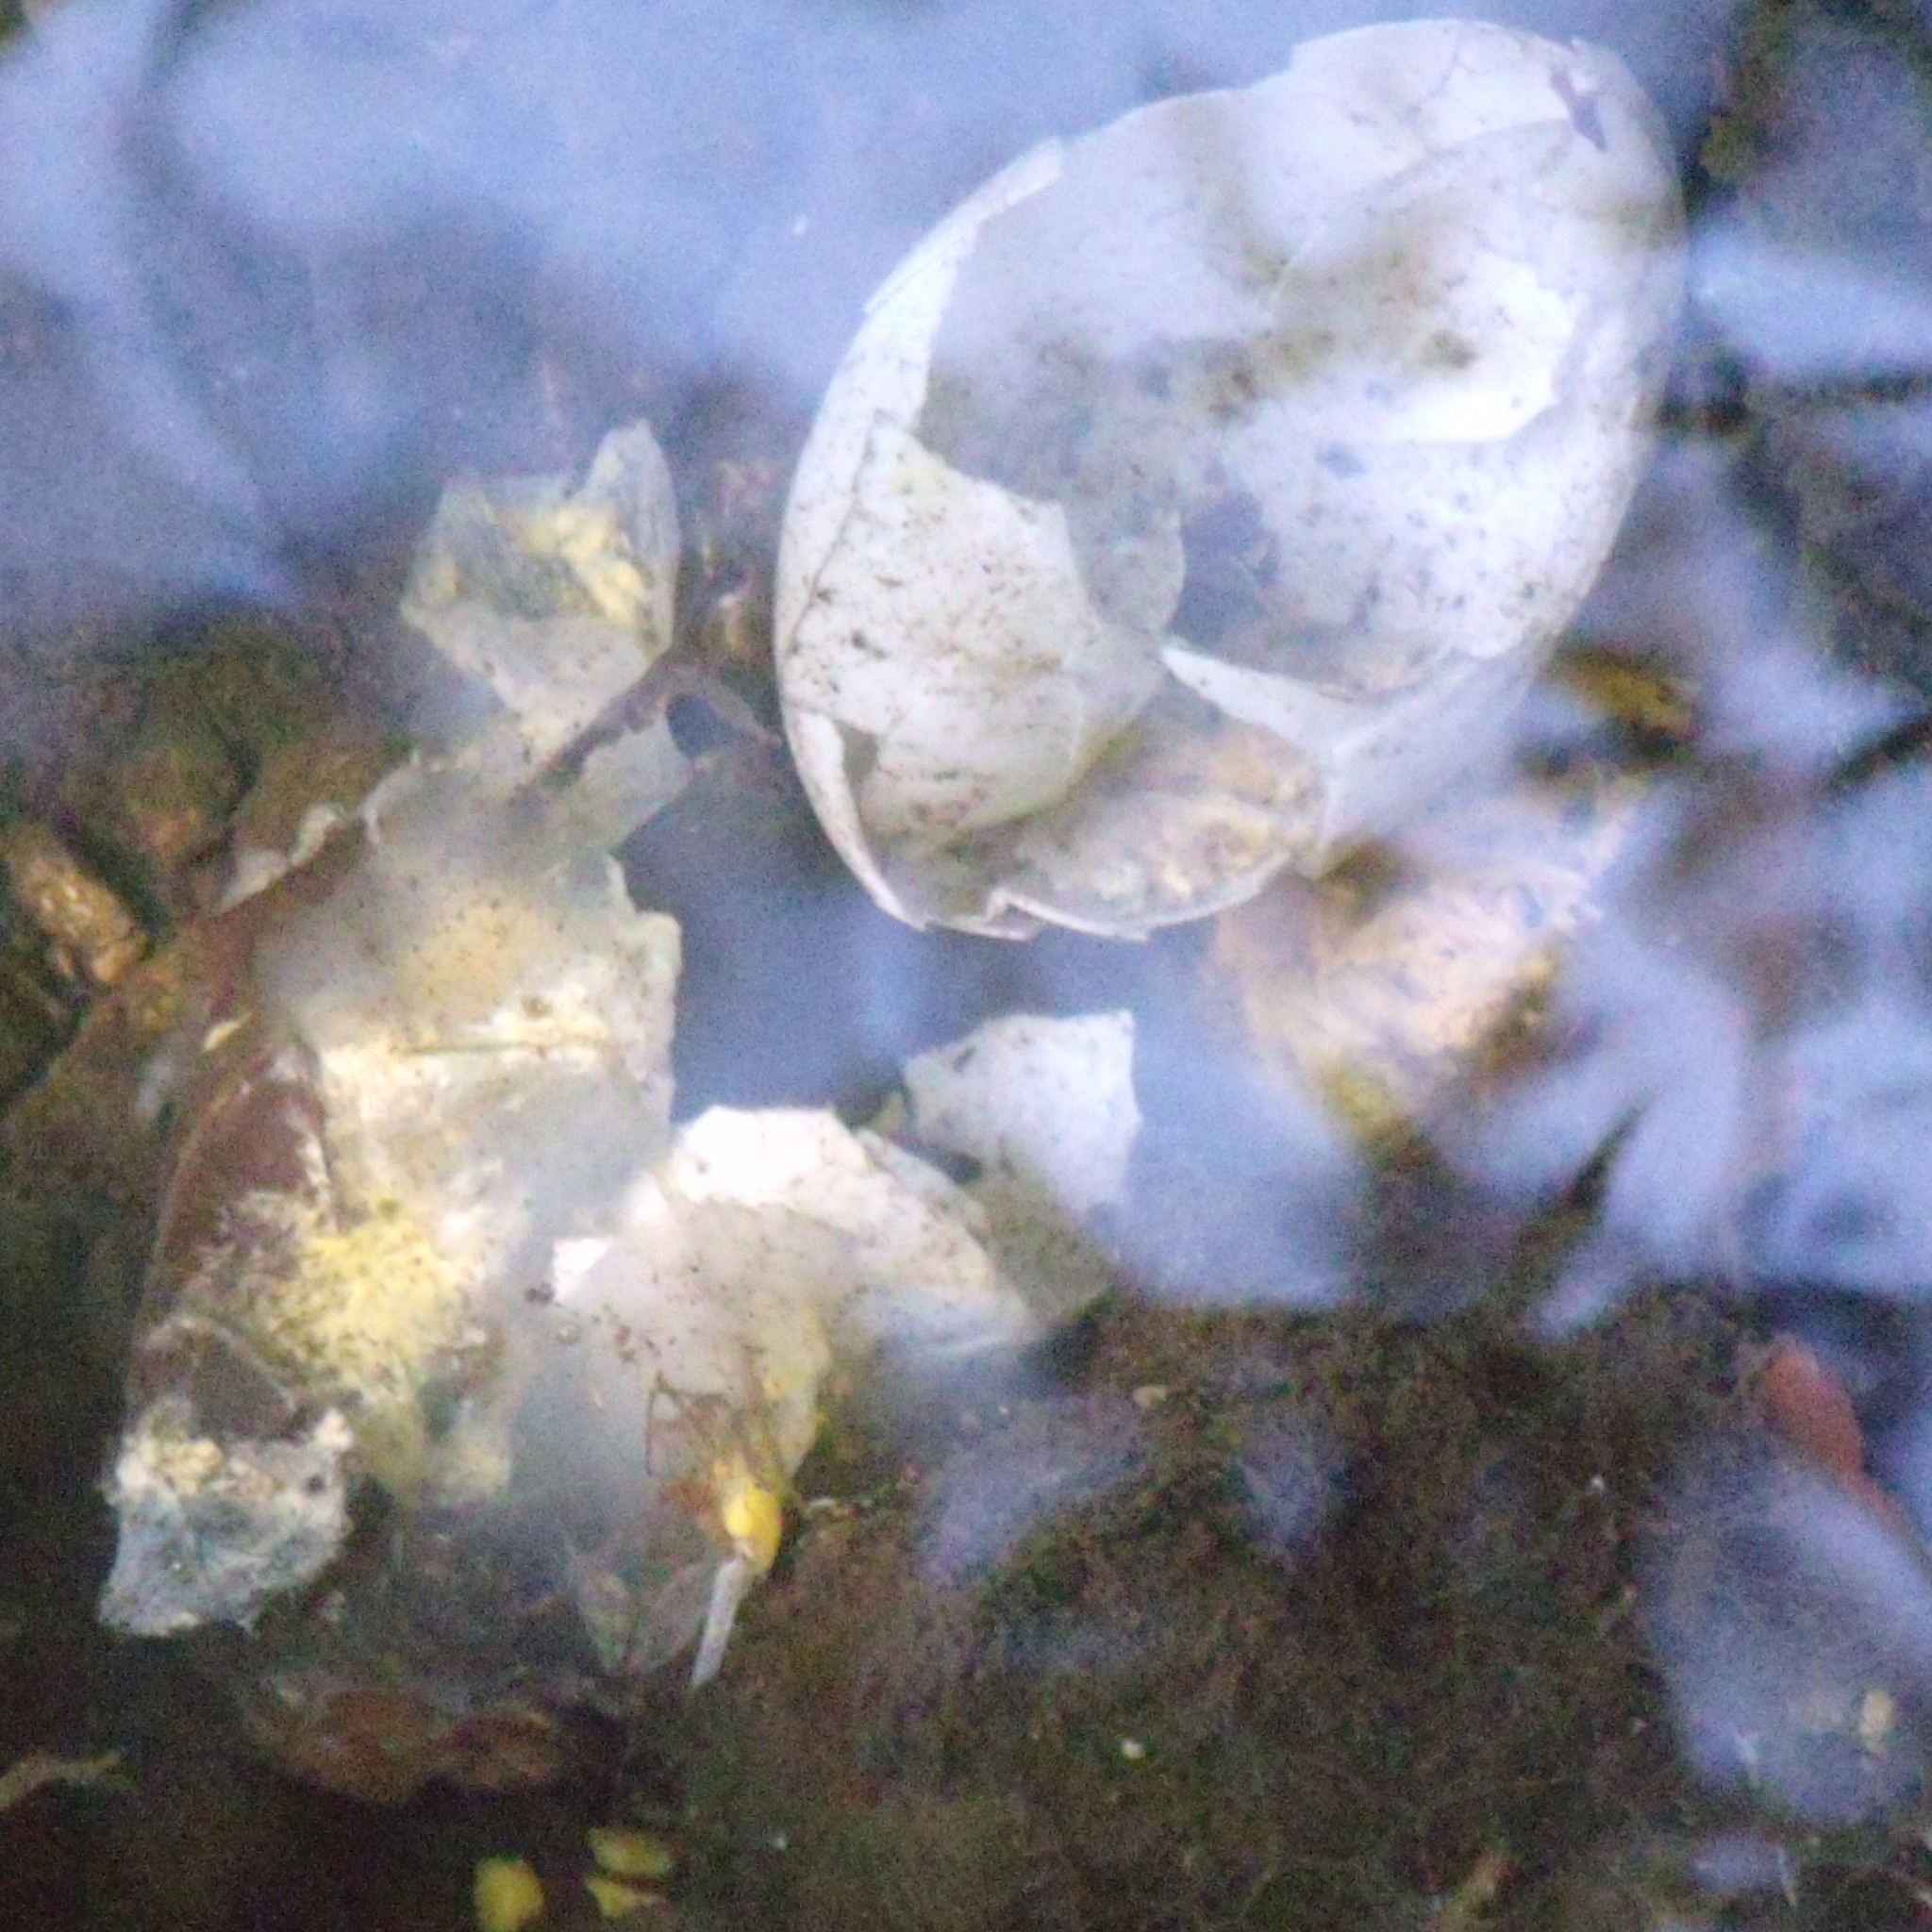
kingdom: Animalia
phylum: Chordata
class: Aves
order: Anseriformes
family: Anatidae
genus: Anas
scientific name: Anas platyrhynchos
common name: Mallard
